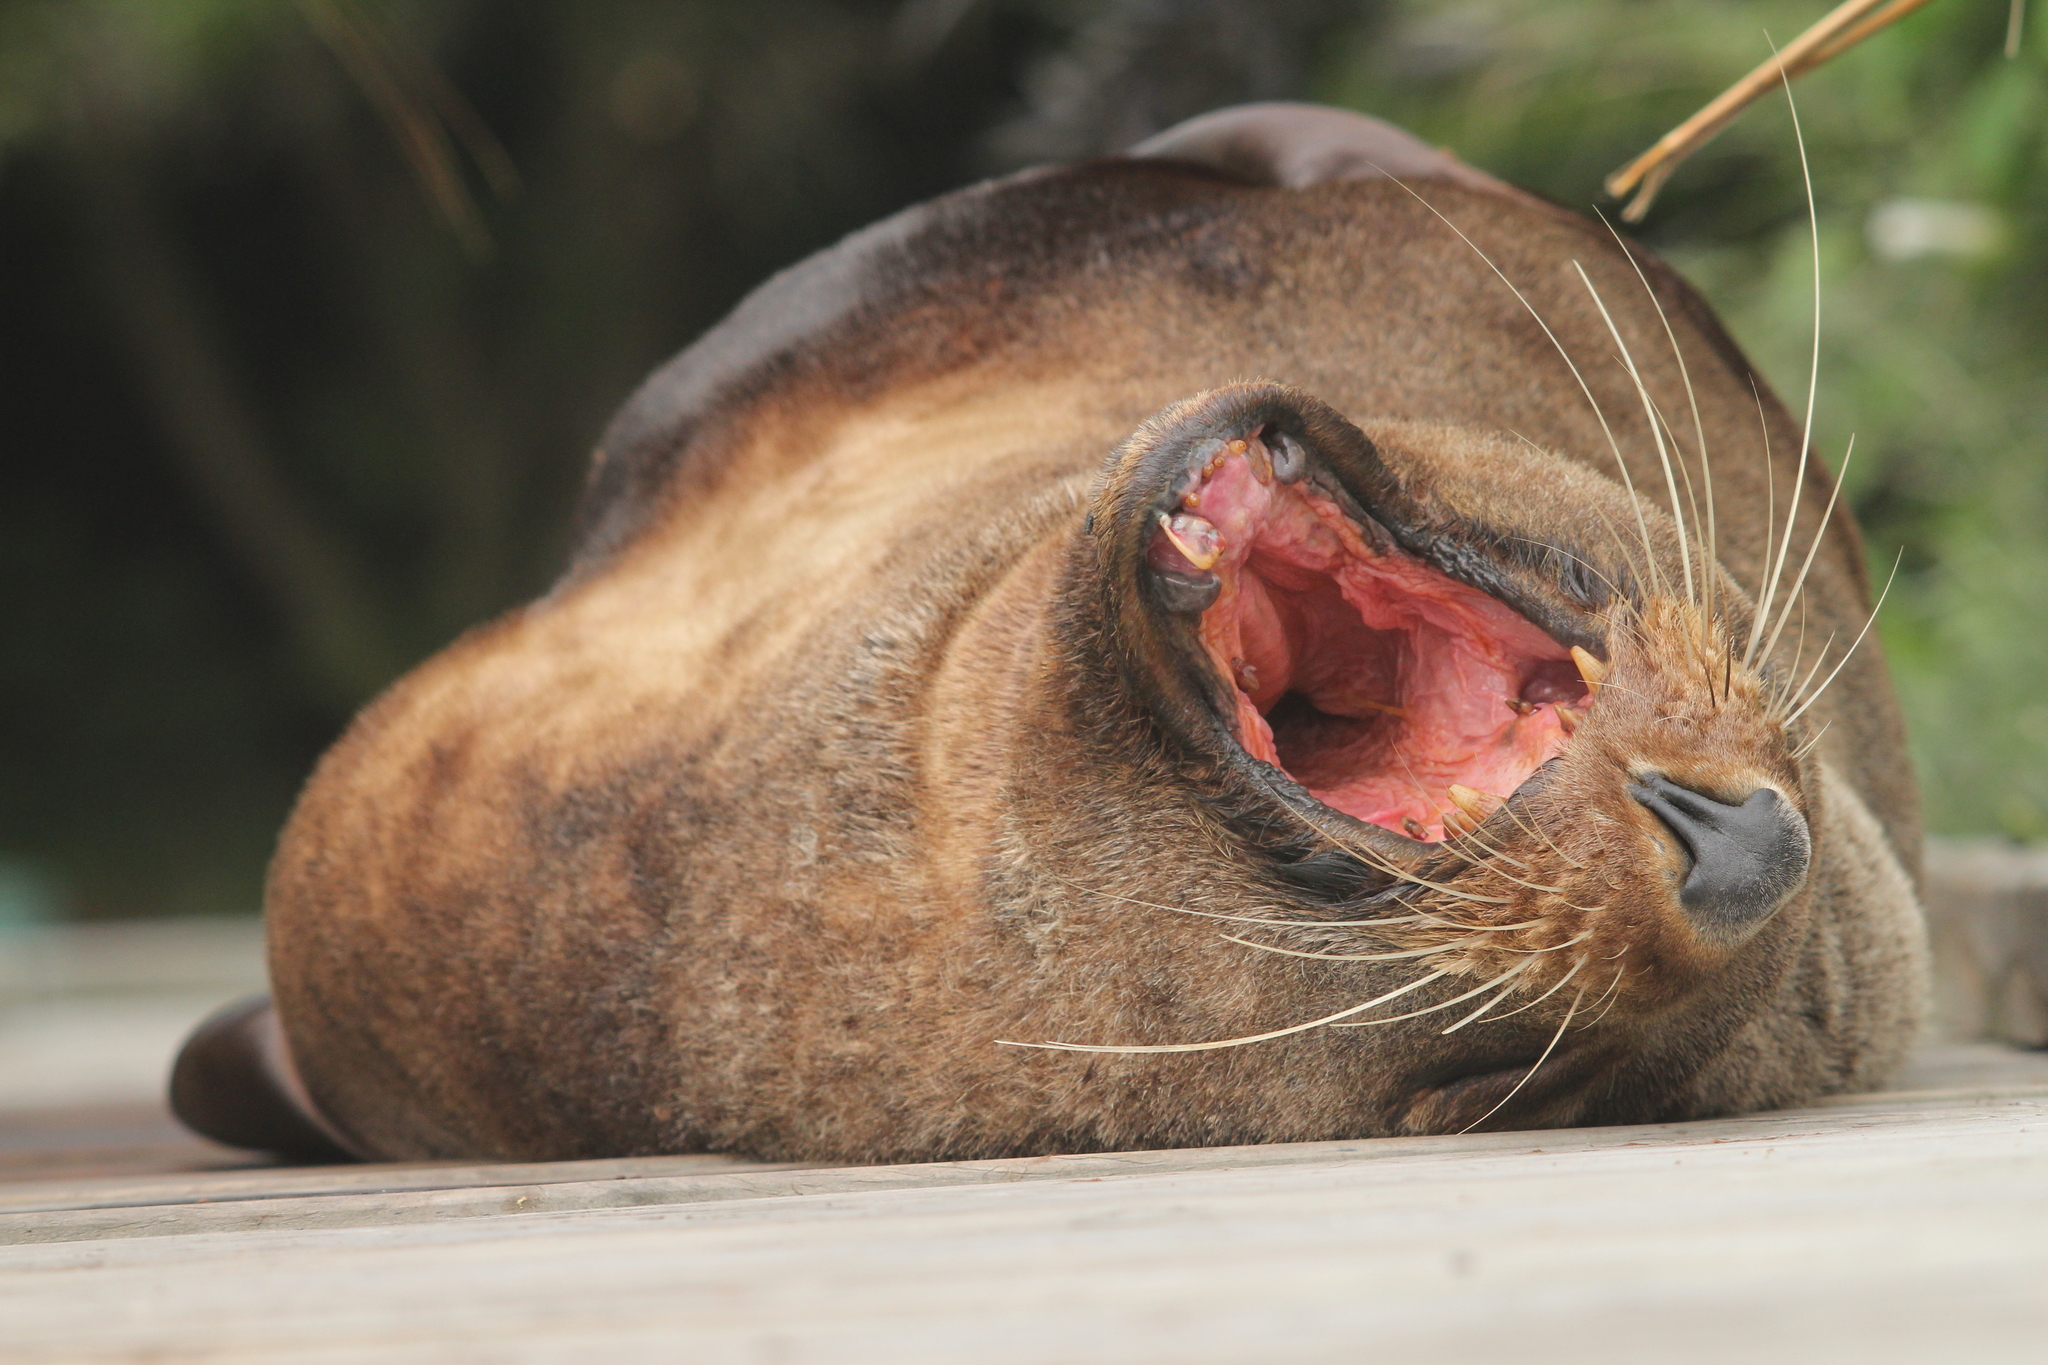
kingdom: Animalia
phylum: Chordata
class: Mammalia
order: Carnivora
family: Otariidae
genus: Arctocephalus
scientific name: Arctocephalus forsteri
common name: New zealand fur seal
